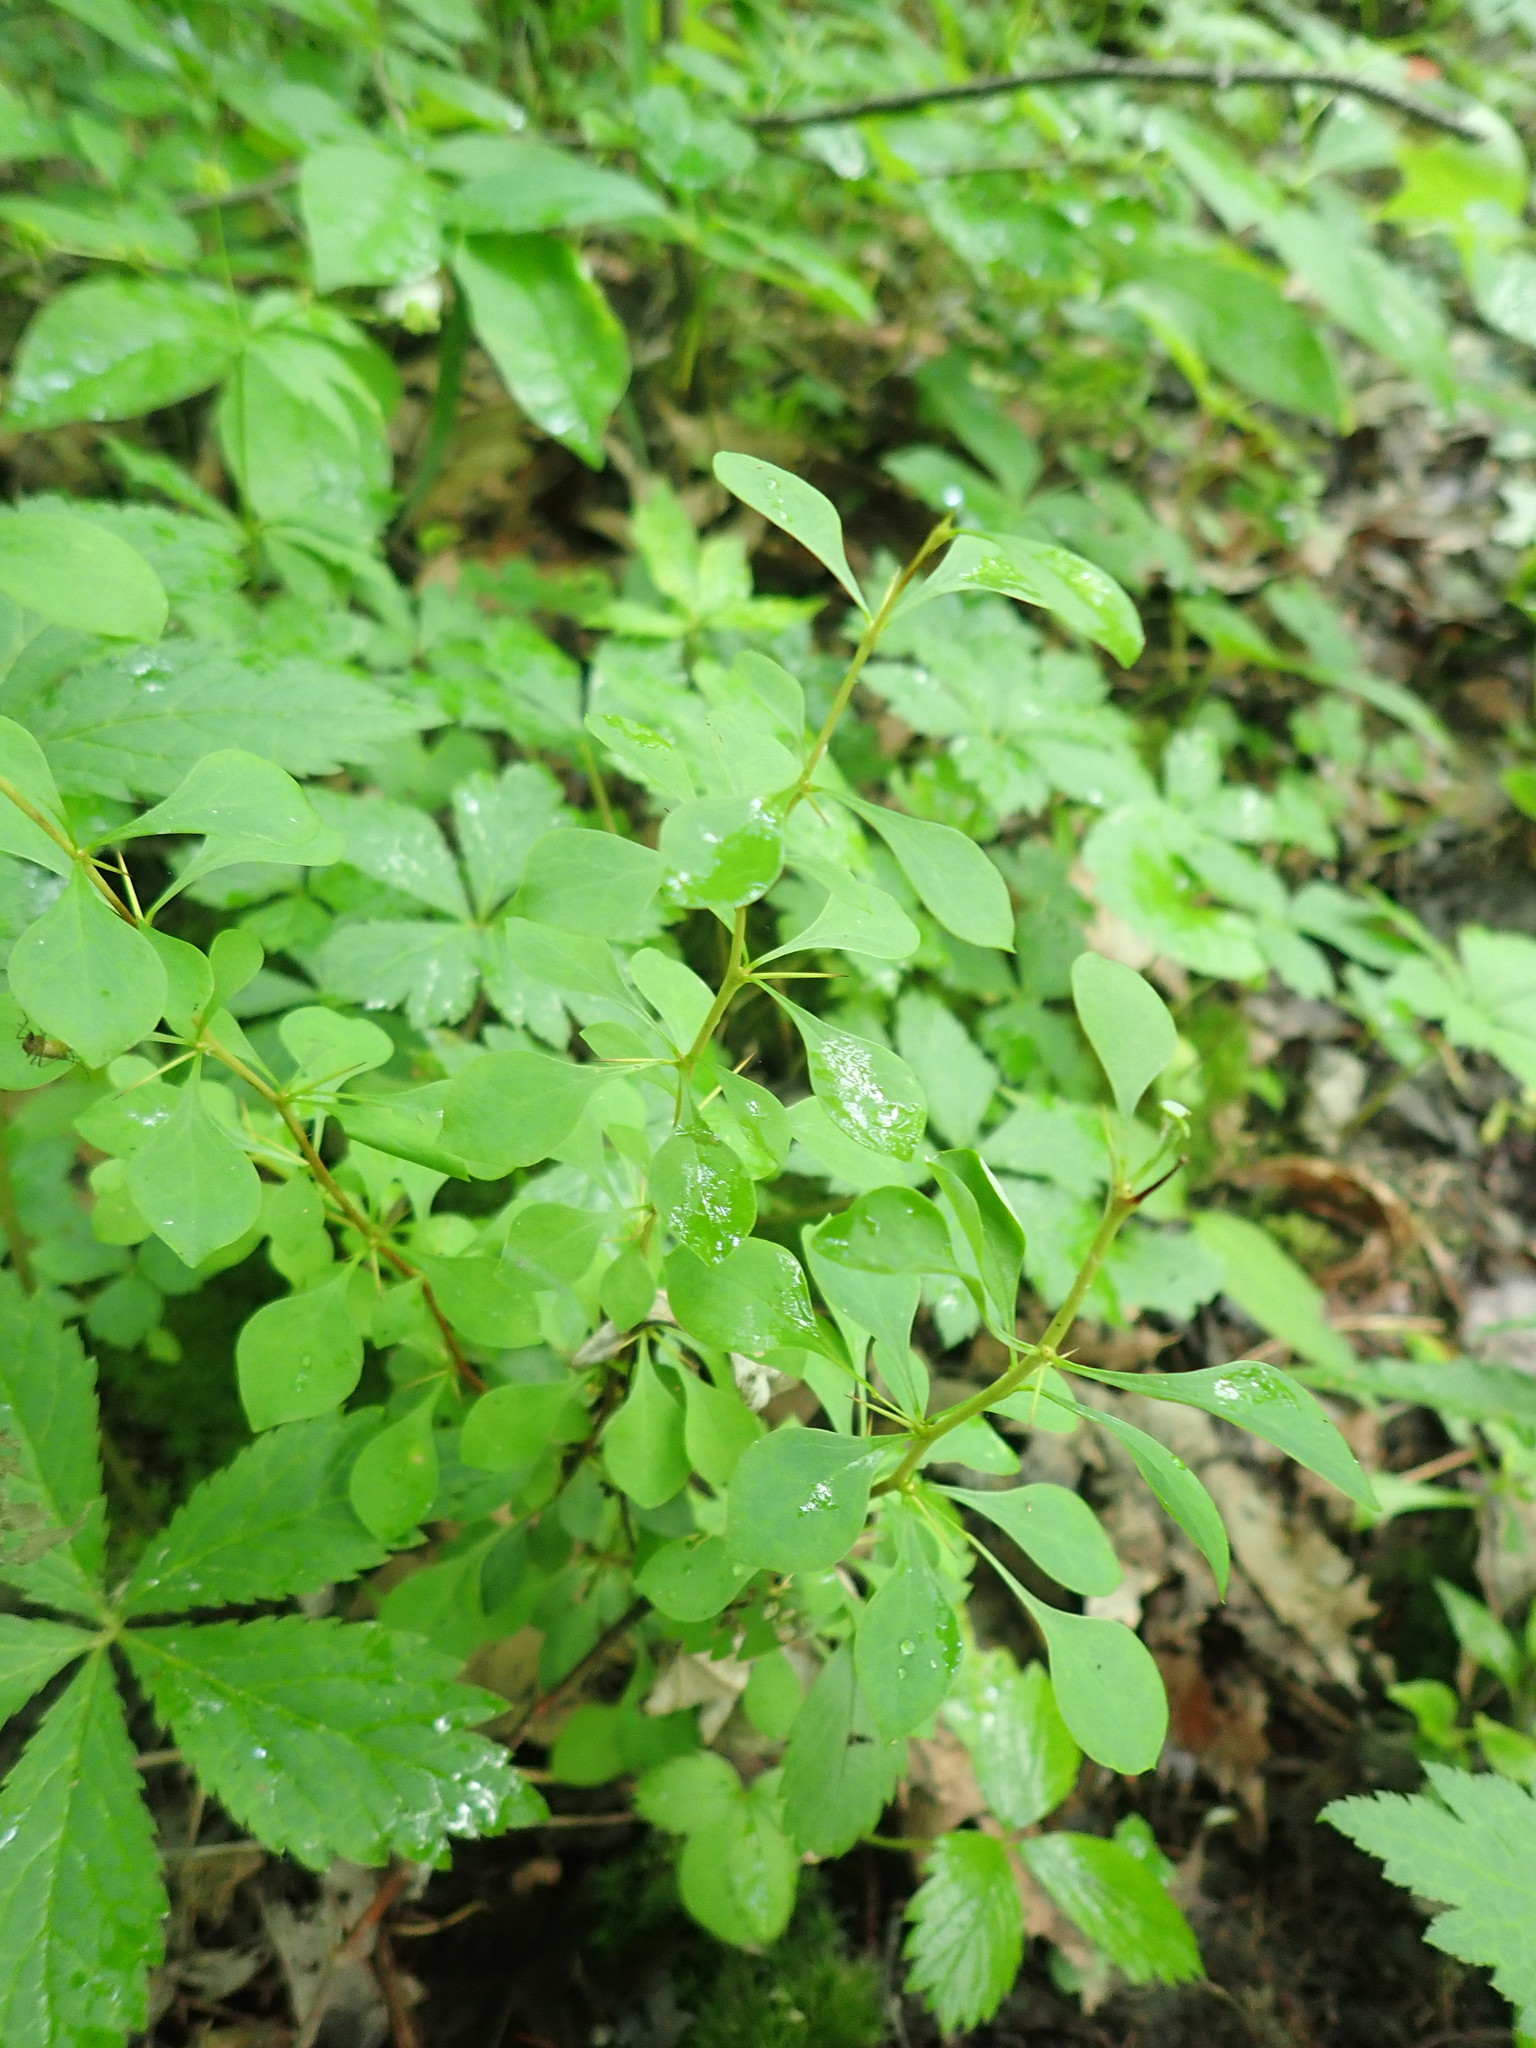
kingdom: Plantae
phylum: Tracheophyta
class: Magnoliopsida
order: Ranunculales
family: Berberidaceae
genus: Berberis
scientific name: Berberis thunbergii
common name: Japanese barberry
